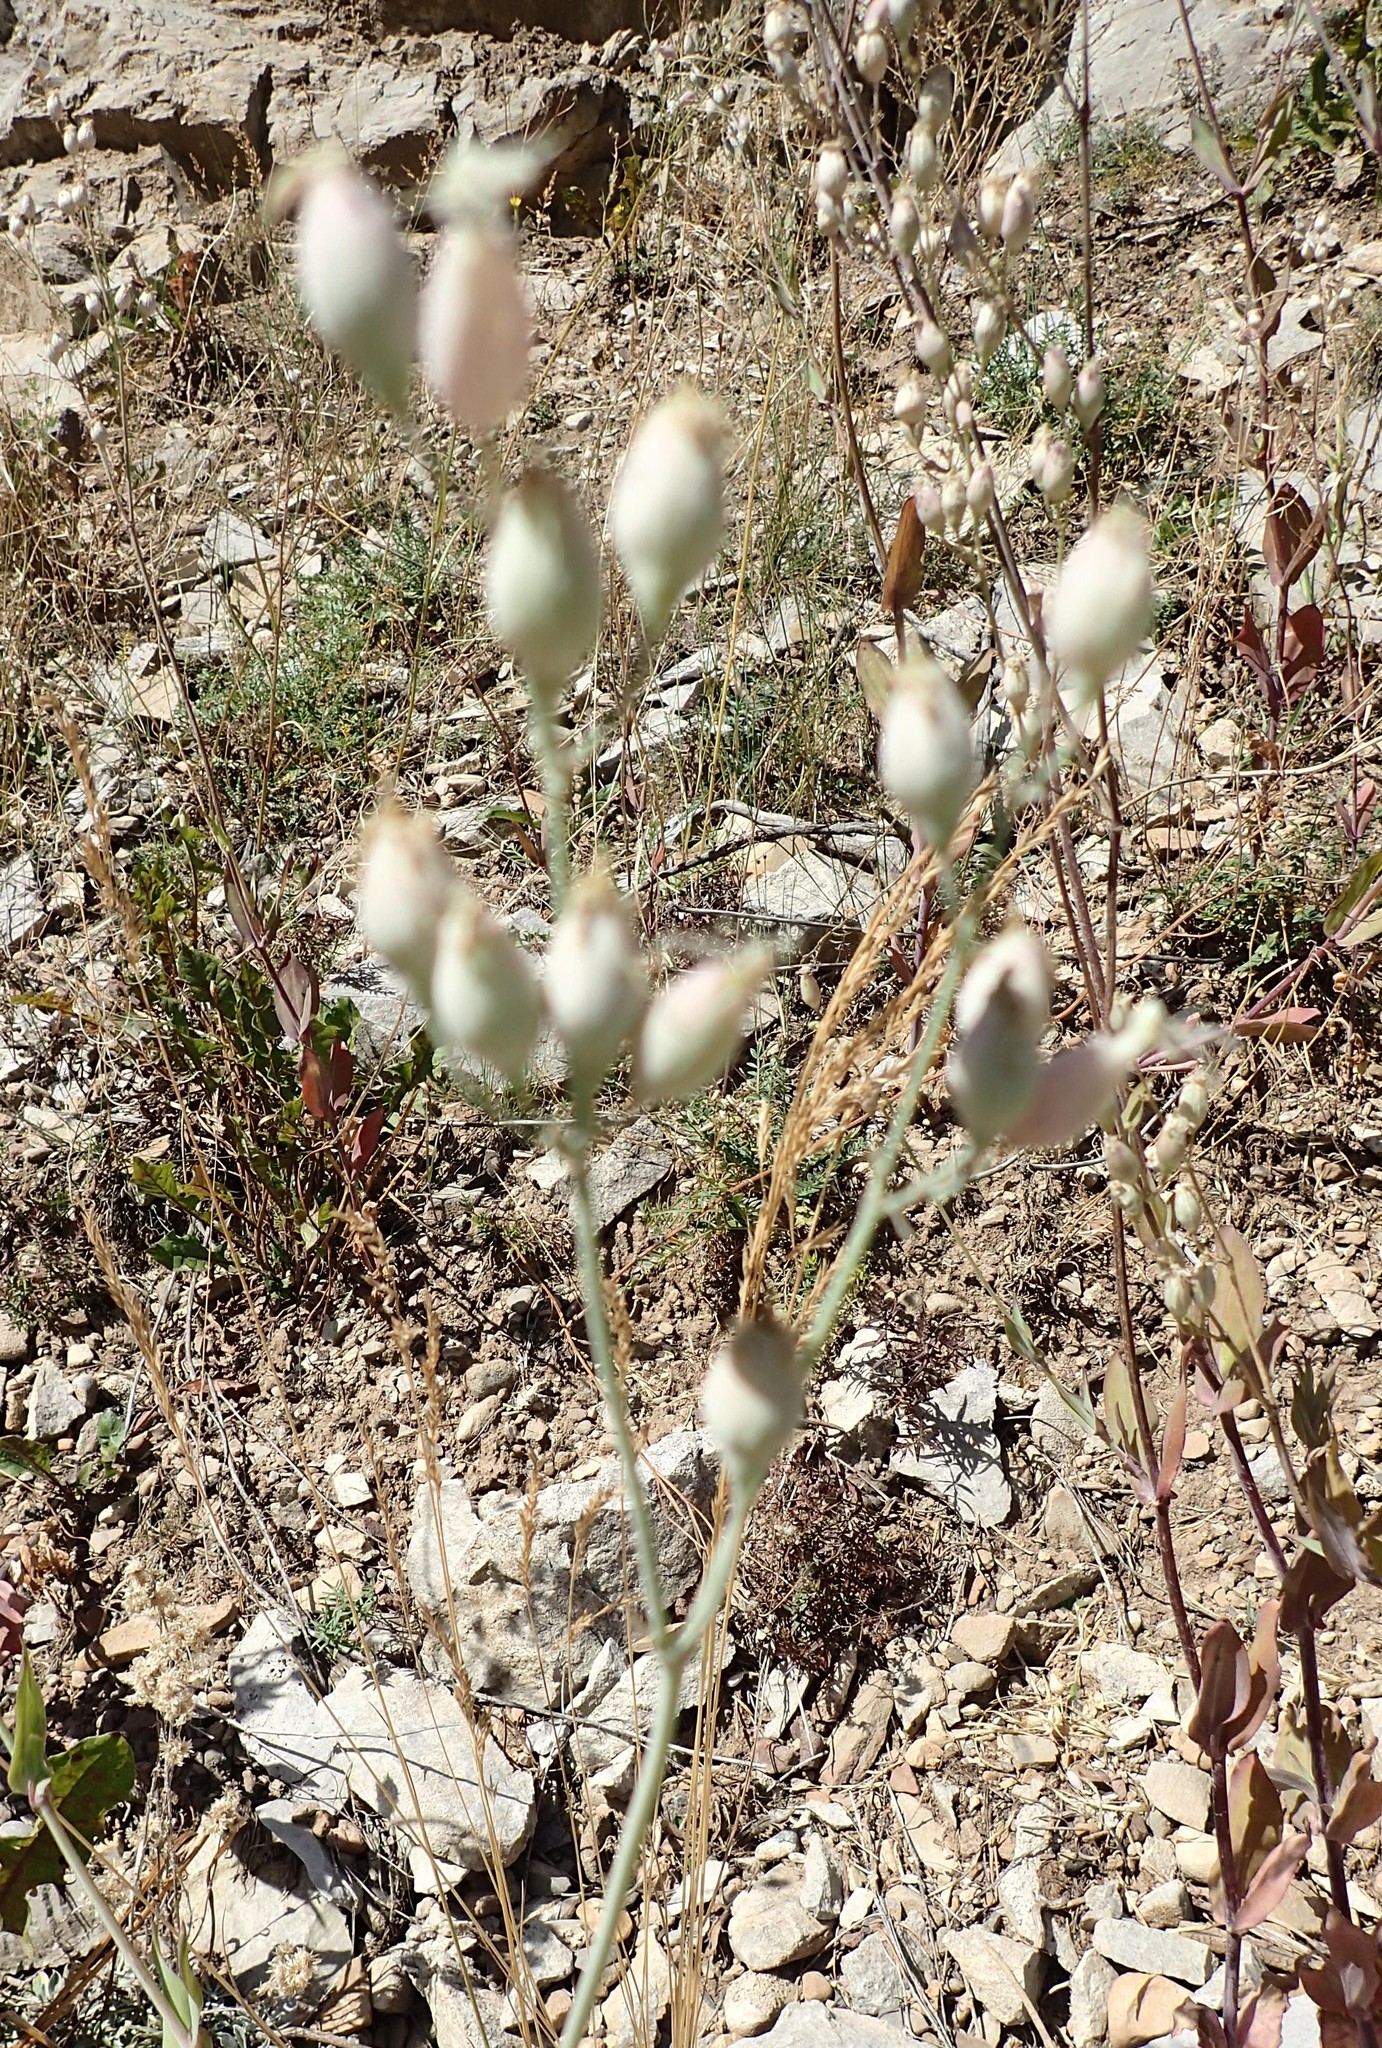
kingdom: Plantae
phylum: Tracheophyta
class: Magnoliopsida
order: Caryophyllales
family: Caryophyllaceae
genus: Silene
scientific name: Silene csereii
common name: Balkan catchfly
